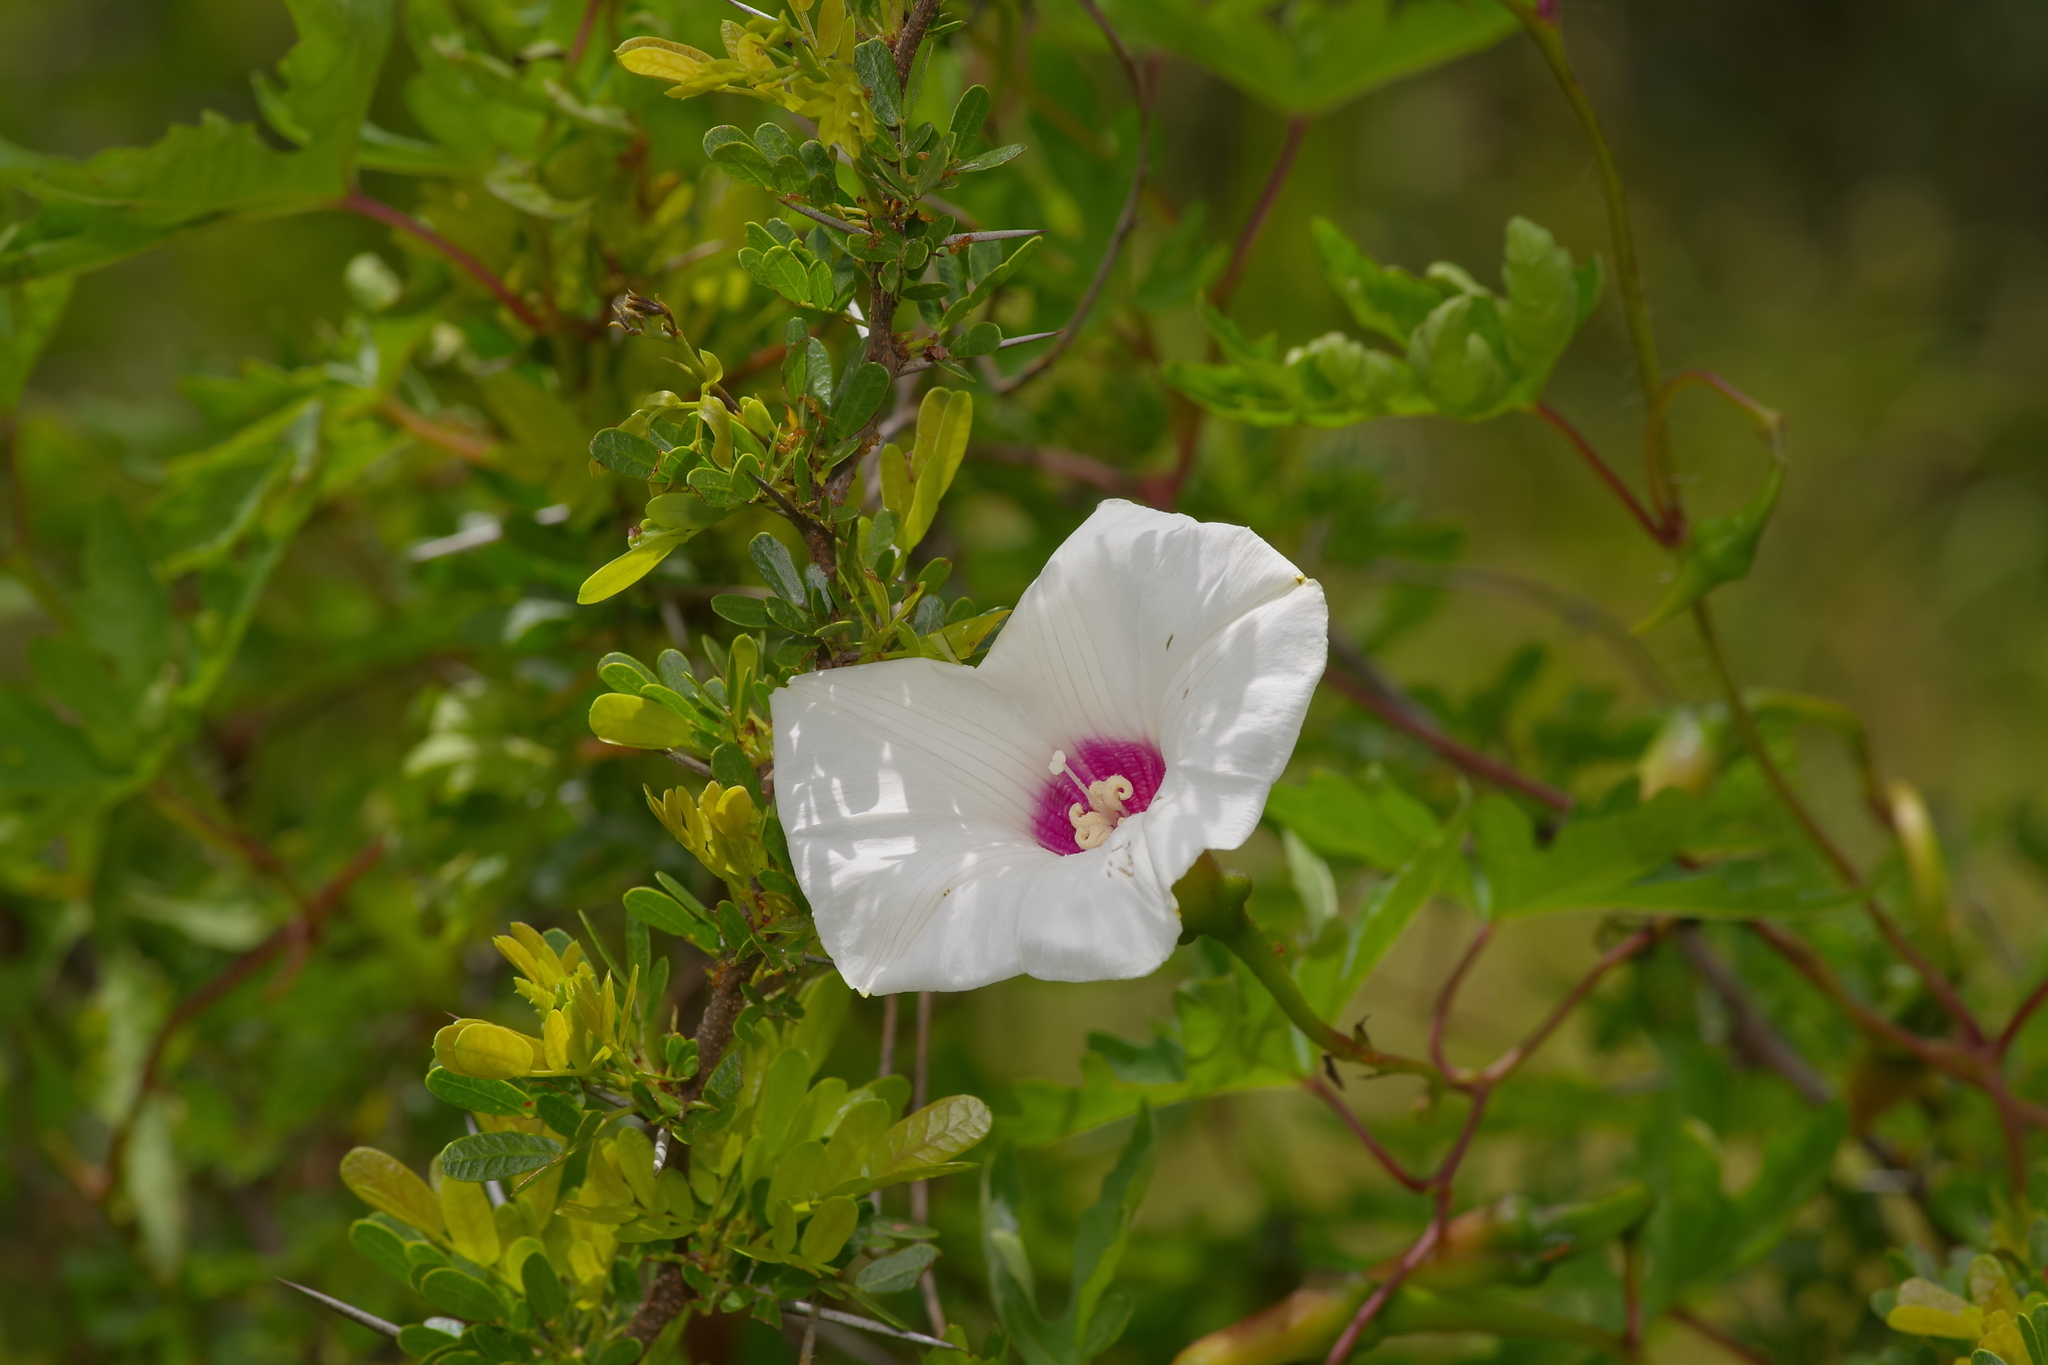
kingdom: Plantae
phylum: Tracheophyta
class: Magnoliopsida
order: Solanales
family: Convolvulaceae
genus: Distimake
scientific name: Distimake dissectus
